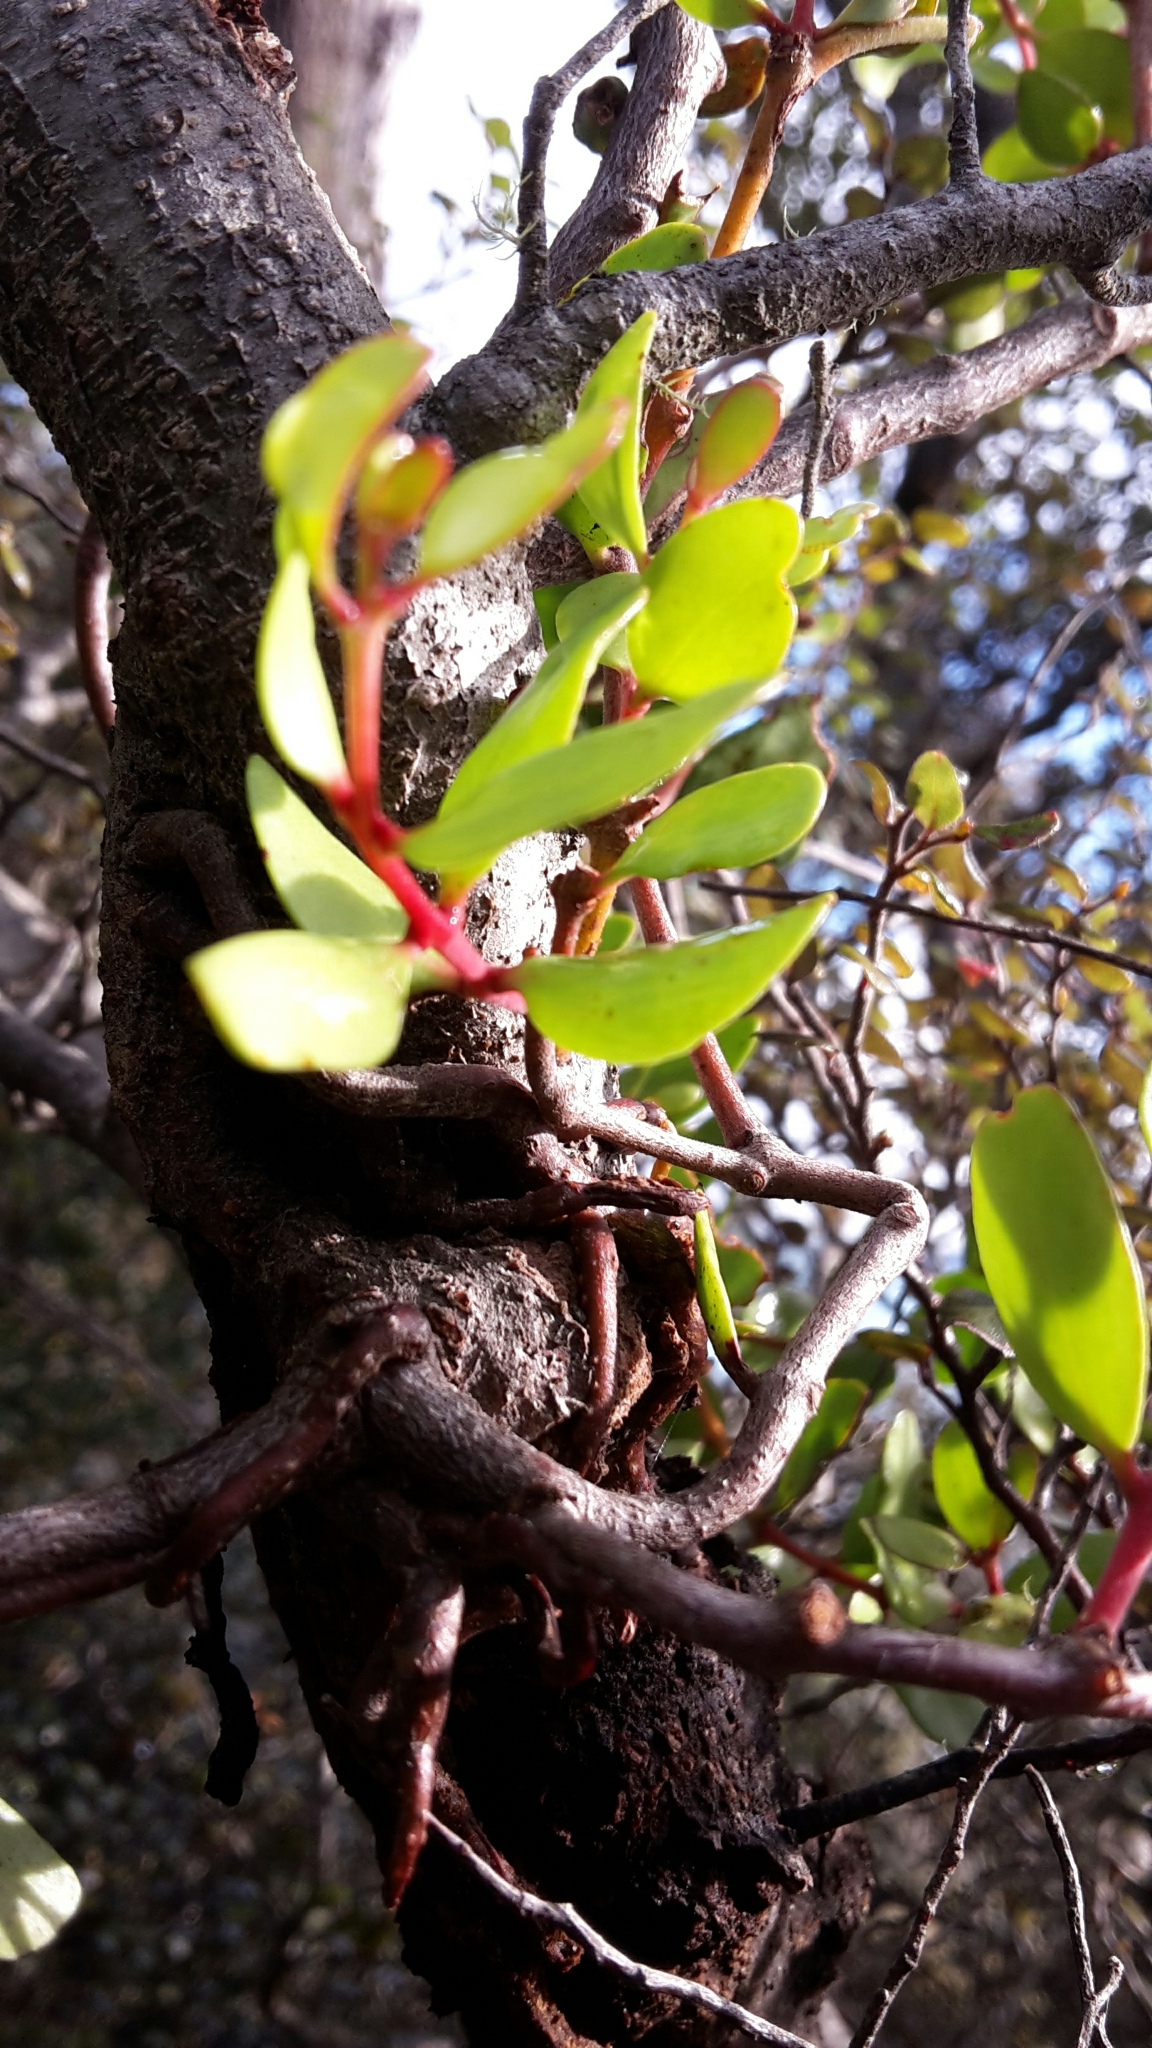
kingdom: Plantae
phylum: Tracheophyta
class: Magnoliopsida
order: Santalales
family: Loranthaceae
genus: Peraxilla
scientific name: Peraxilla tetrapetala
